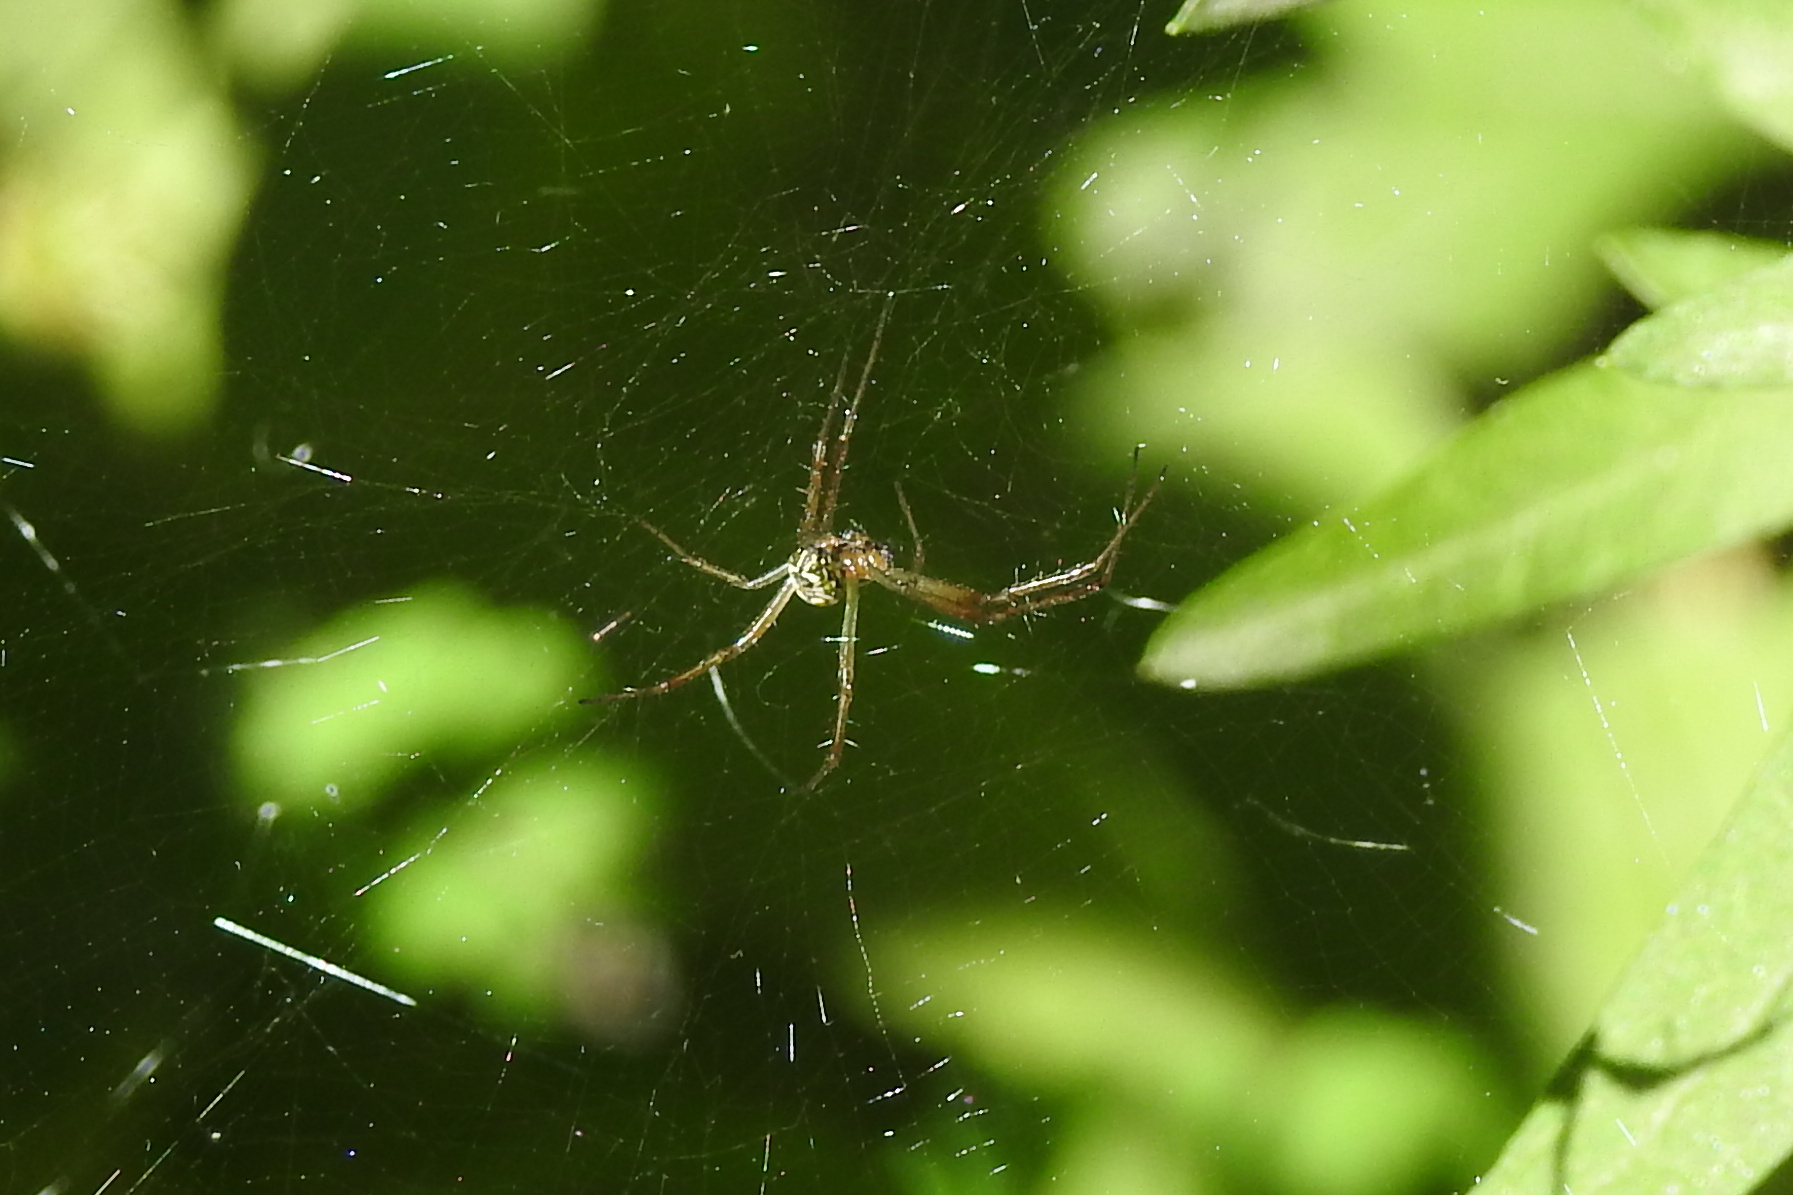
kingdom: Animalia
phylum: Arthropoda
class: Arachnida
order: Araneae
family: Araneidae
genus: Mecynogea
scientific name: Mecynogea lemniscata
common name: Orb weavers
